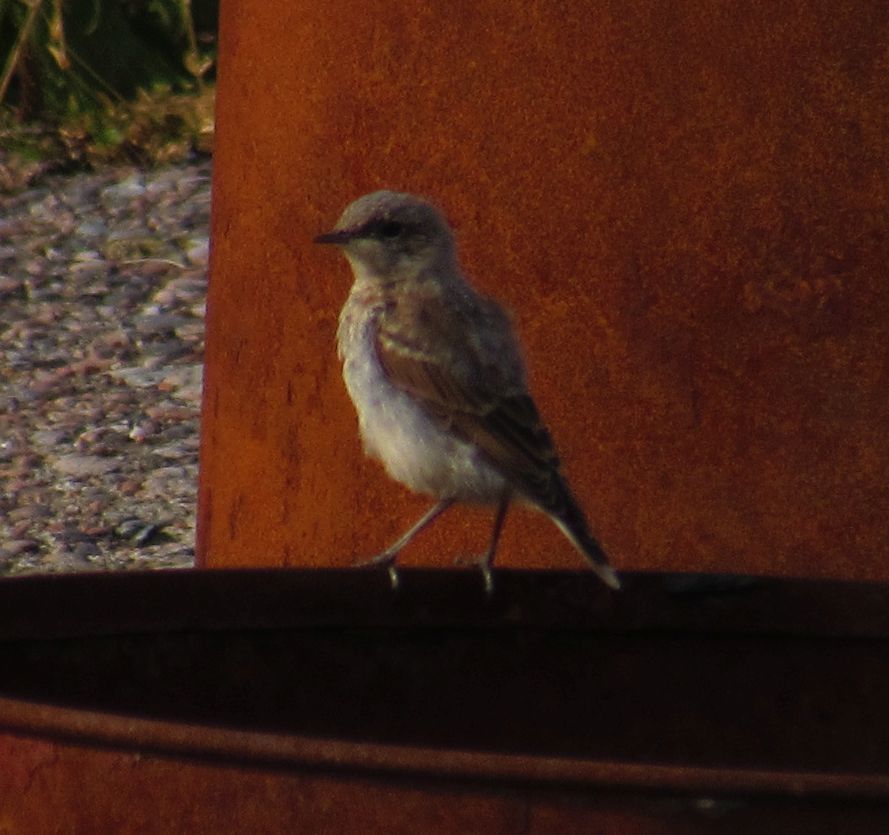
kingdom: Animalia
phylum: Chordata
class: Aves
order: Passeriformes
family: Muscicapidae
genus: Oenanthe
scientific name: Oenanthe oenanthe
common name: Northern wheatear
